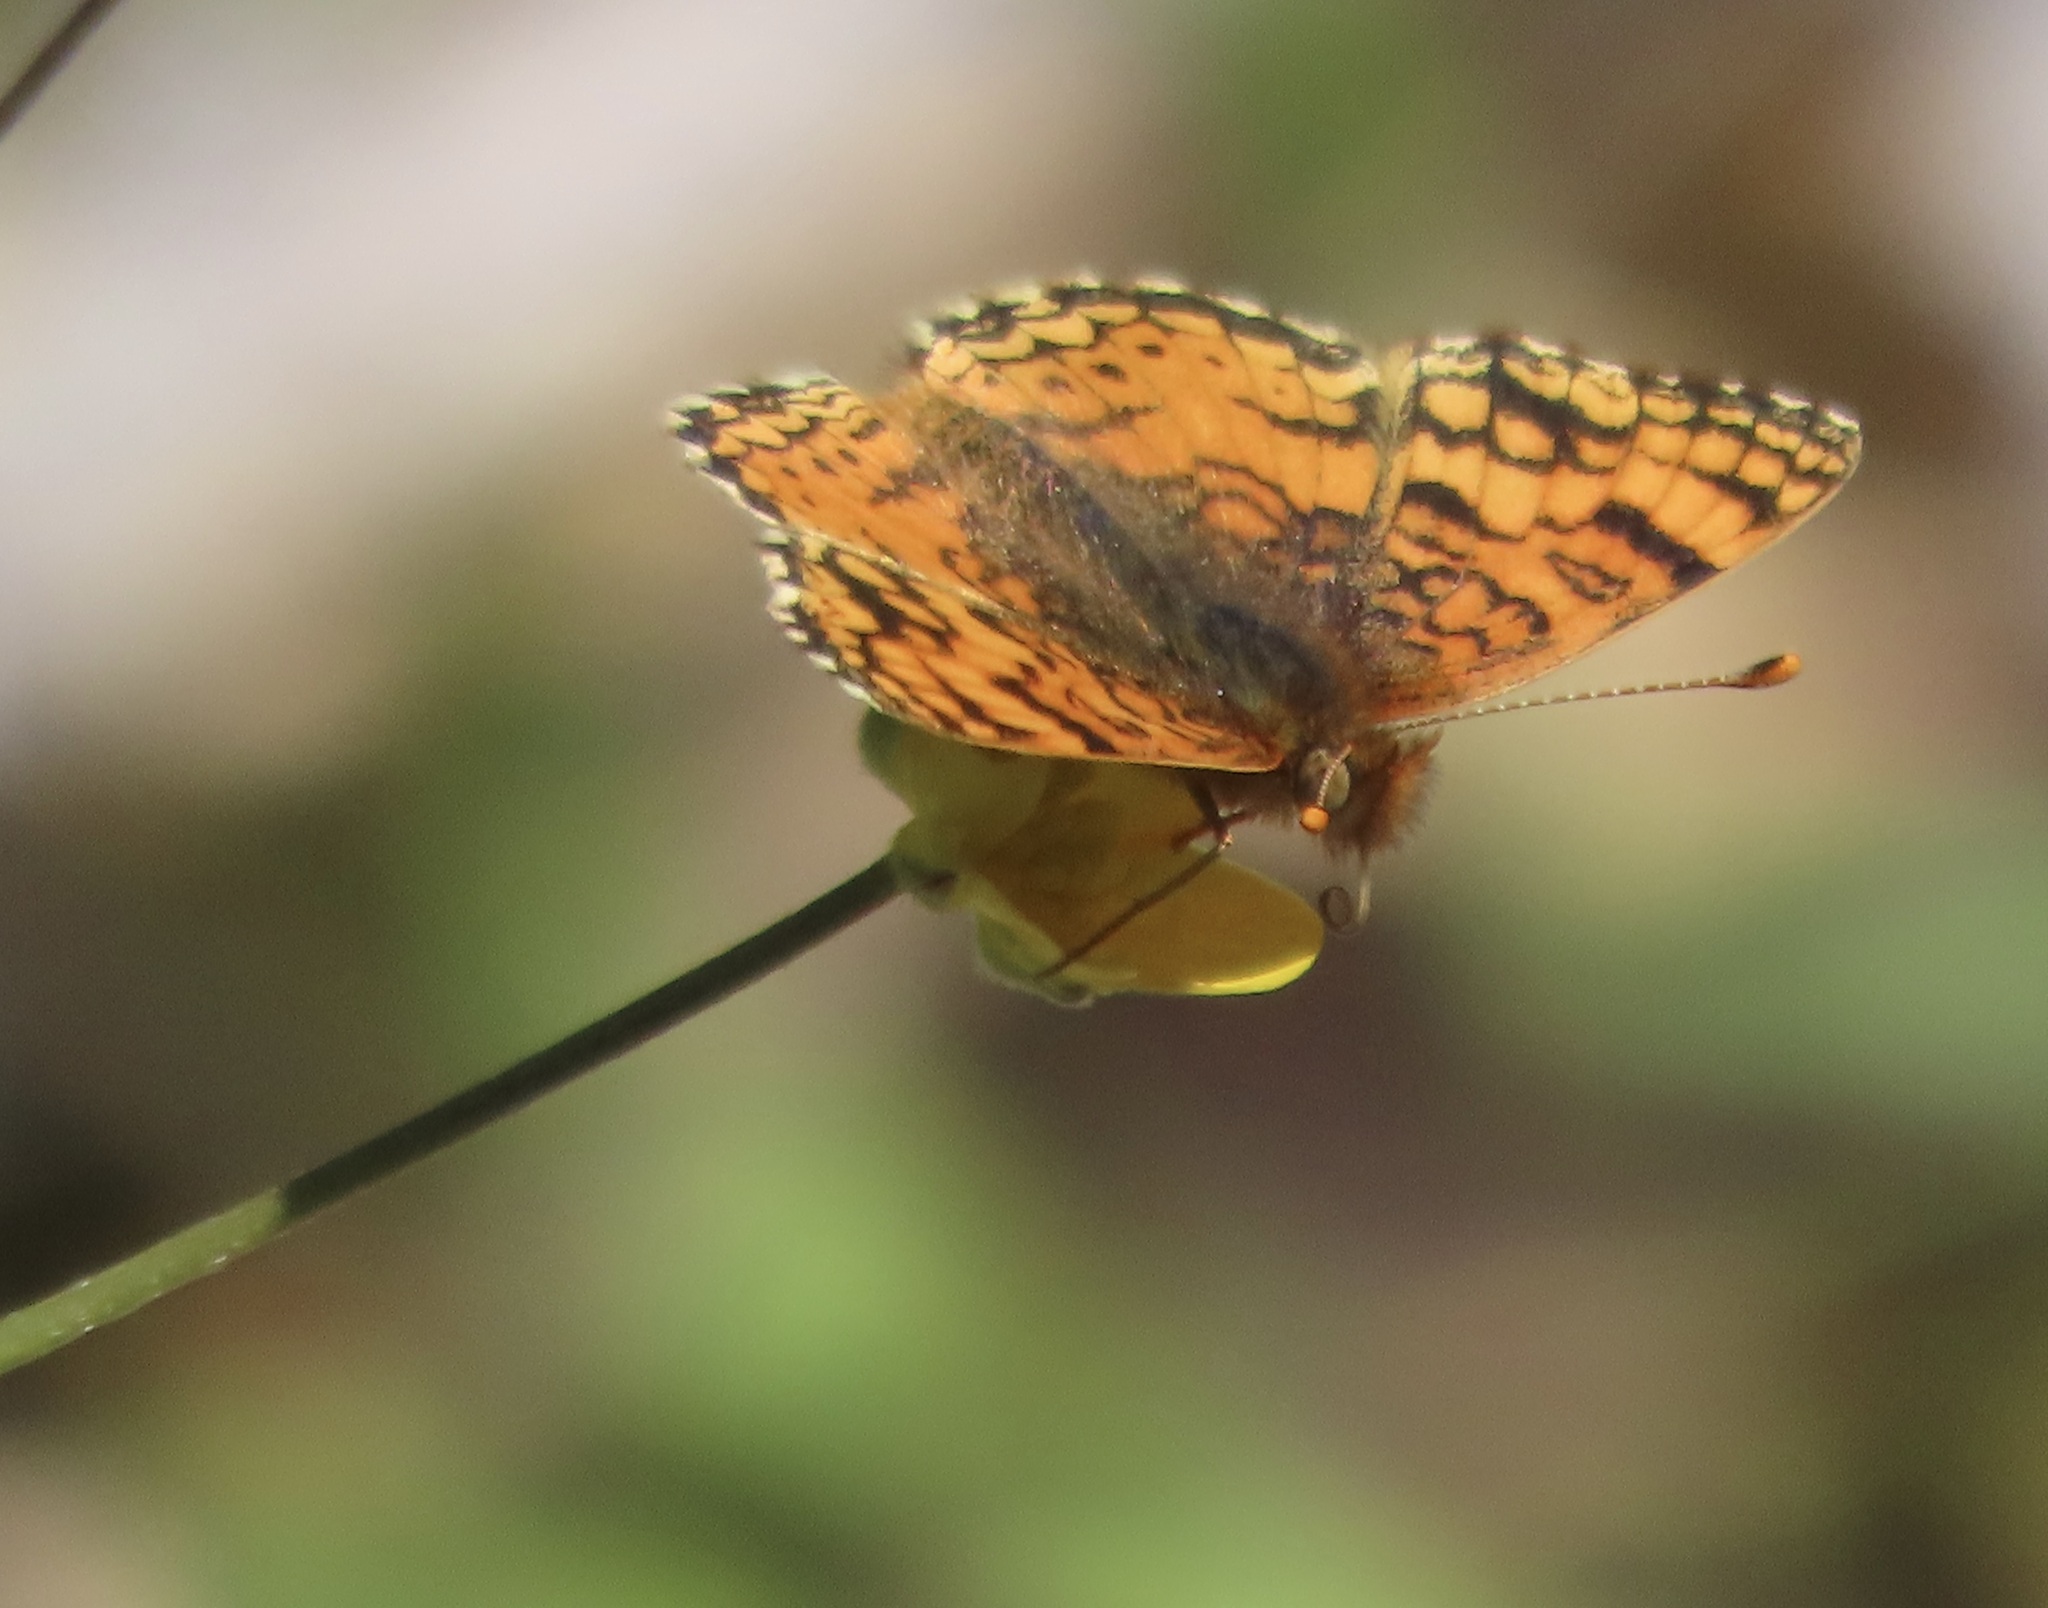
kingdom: Animalia
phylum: Arthropoda
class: Insecta
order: Lepidoptera
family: Nymphalidae
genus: Eresia
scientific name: Eresia aveyrona
